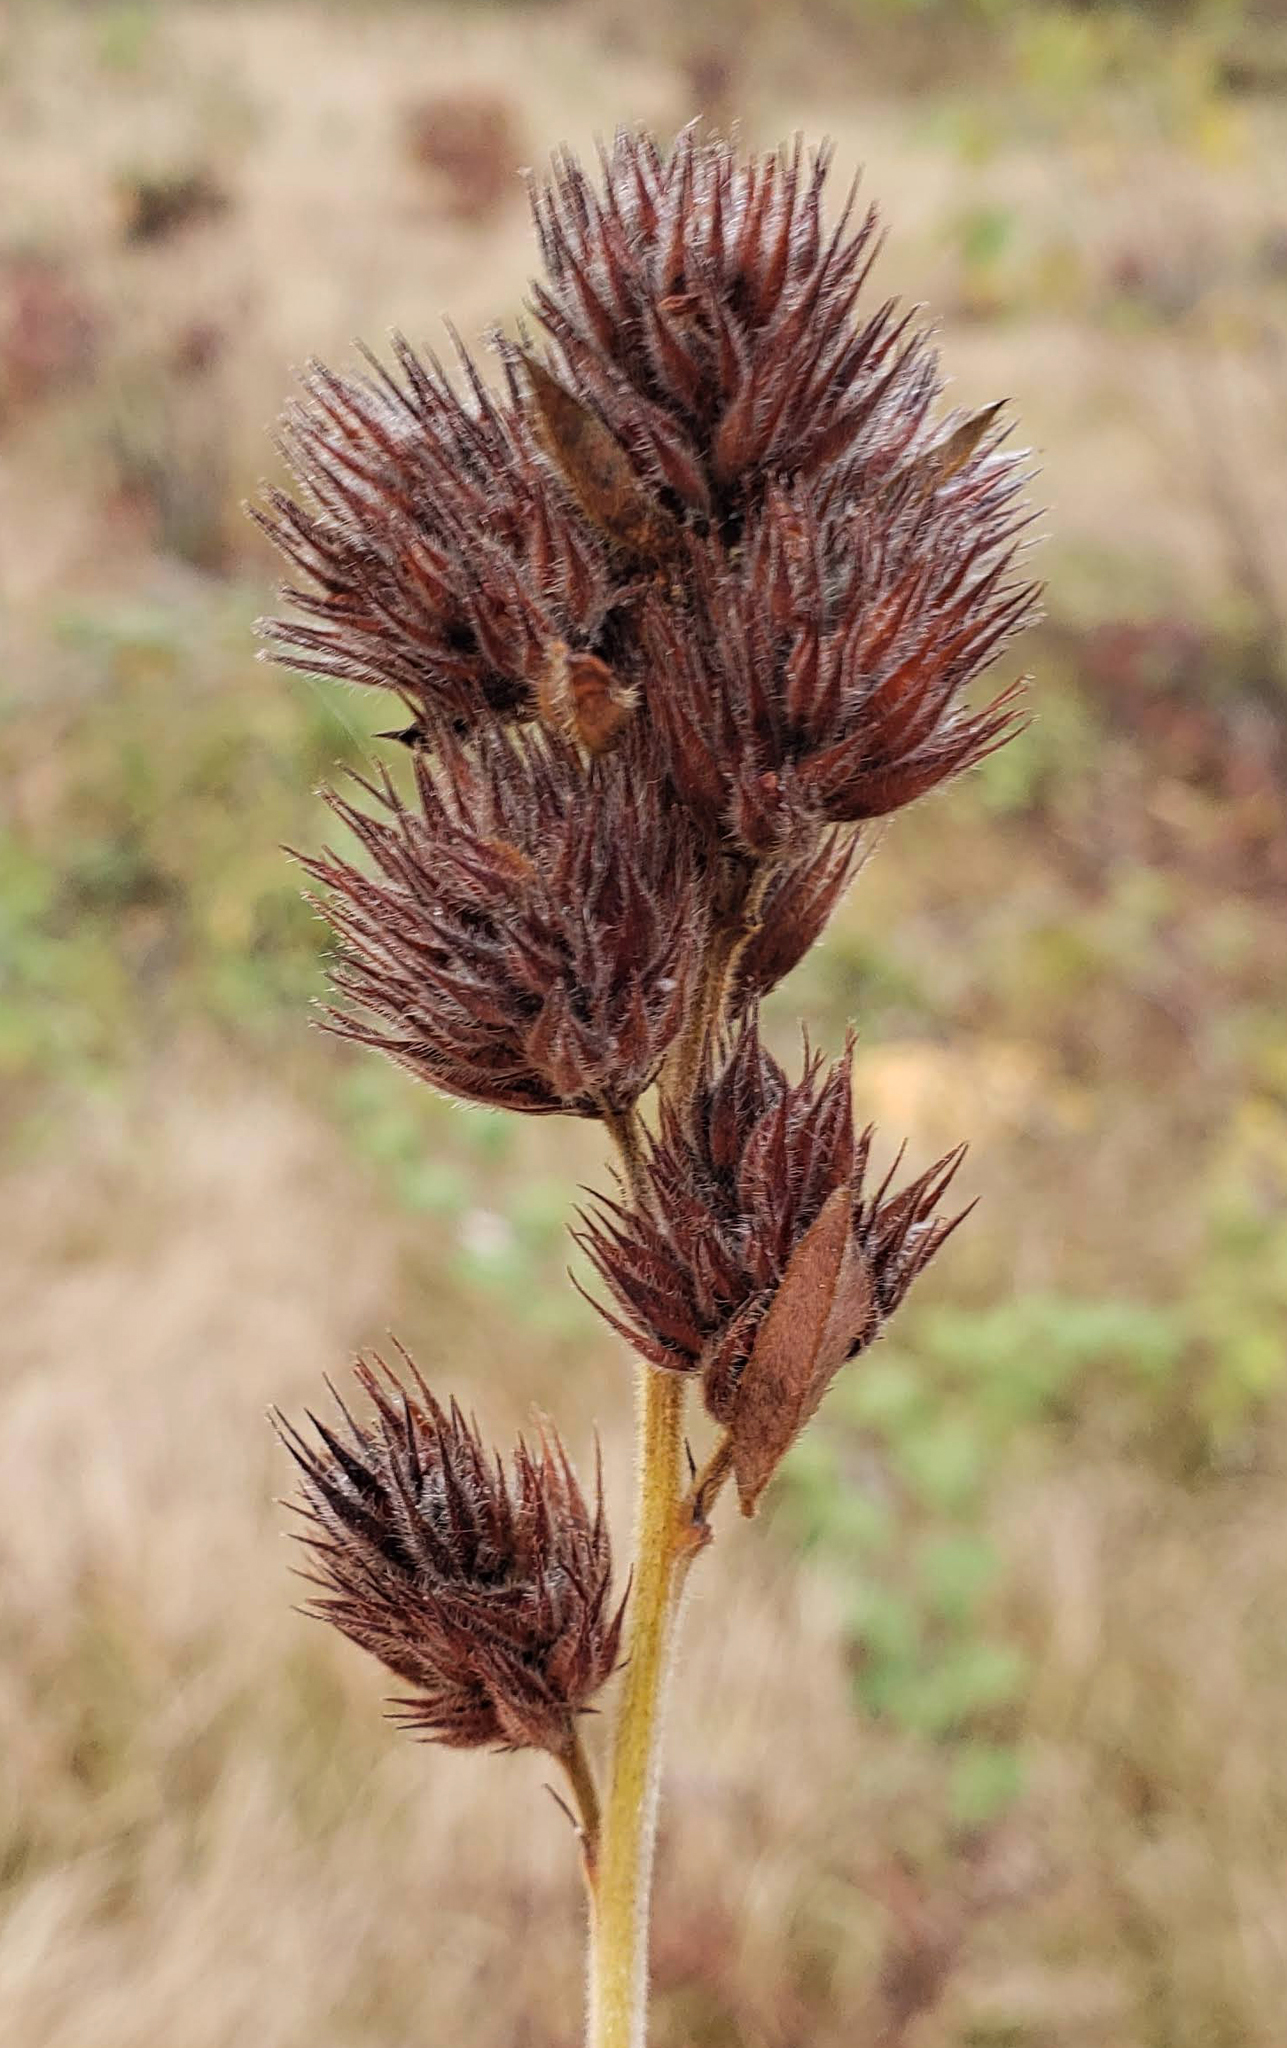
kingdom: Plantae
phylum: Tracheophyta
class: Magnoliopsida
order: Fabales
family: Fabaceae
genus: Lespedeza
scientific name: Lespedeza capitata
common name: Dusty clover
